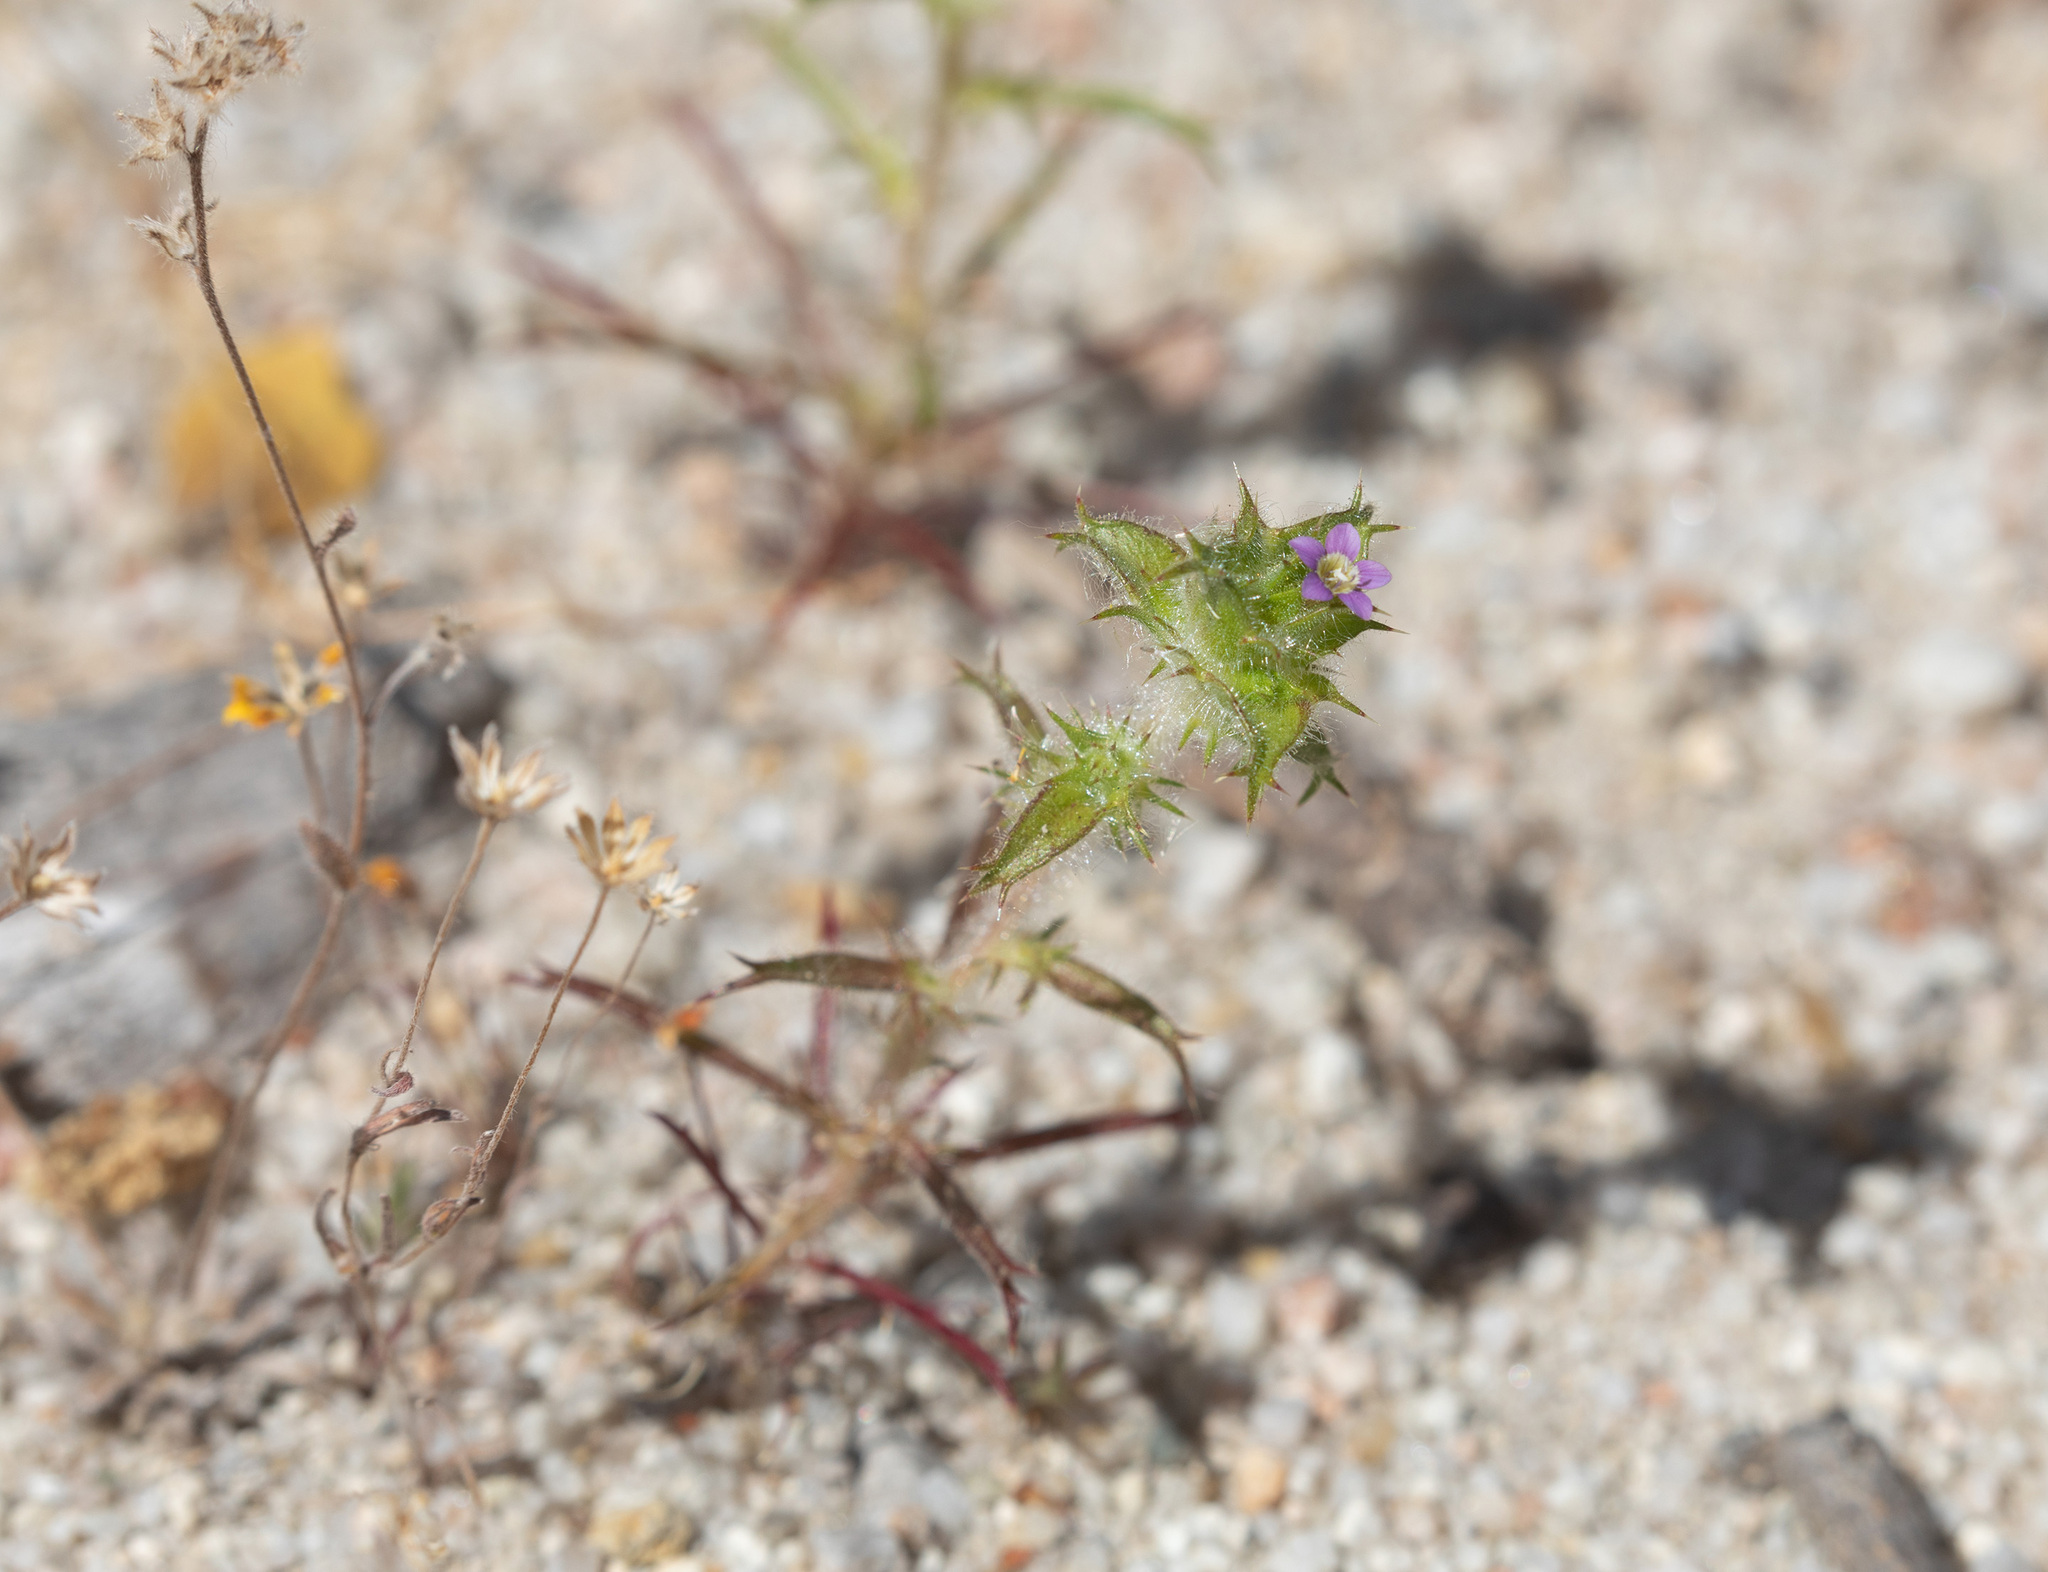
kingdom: Plantae
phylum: Tracheophyta
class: Magnoliopsida
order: Ericales
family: Polemoniaceae
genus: Navarretia
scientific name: Navarretia atractyloides
